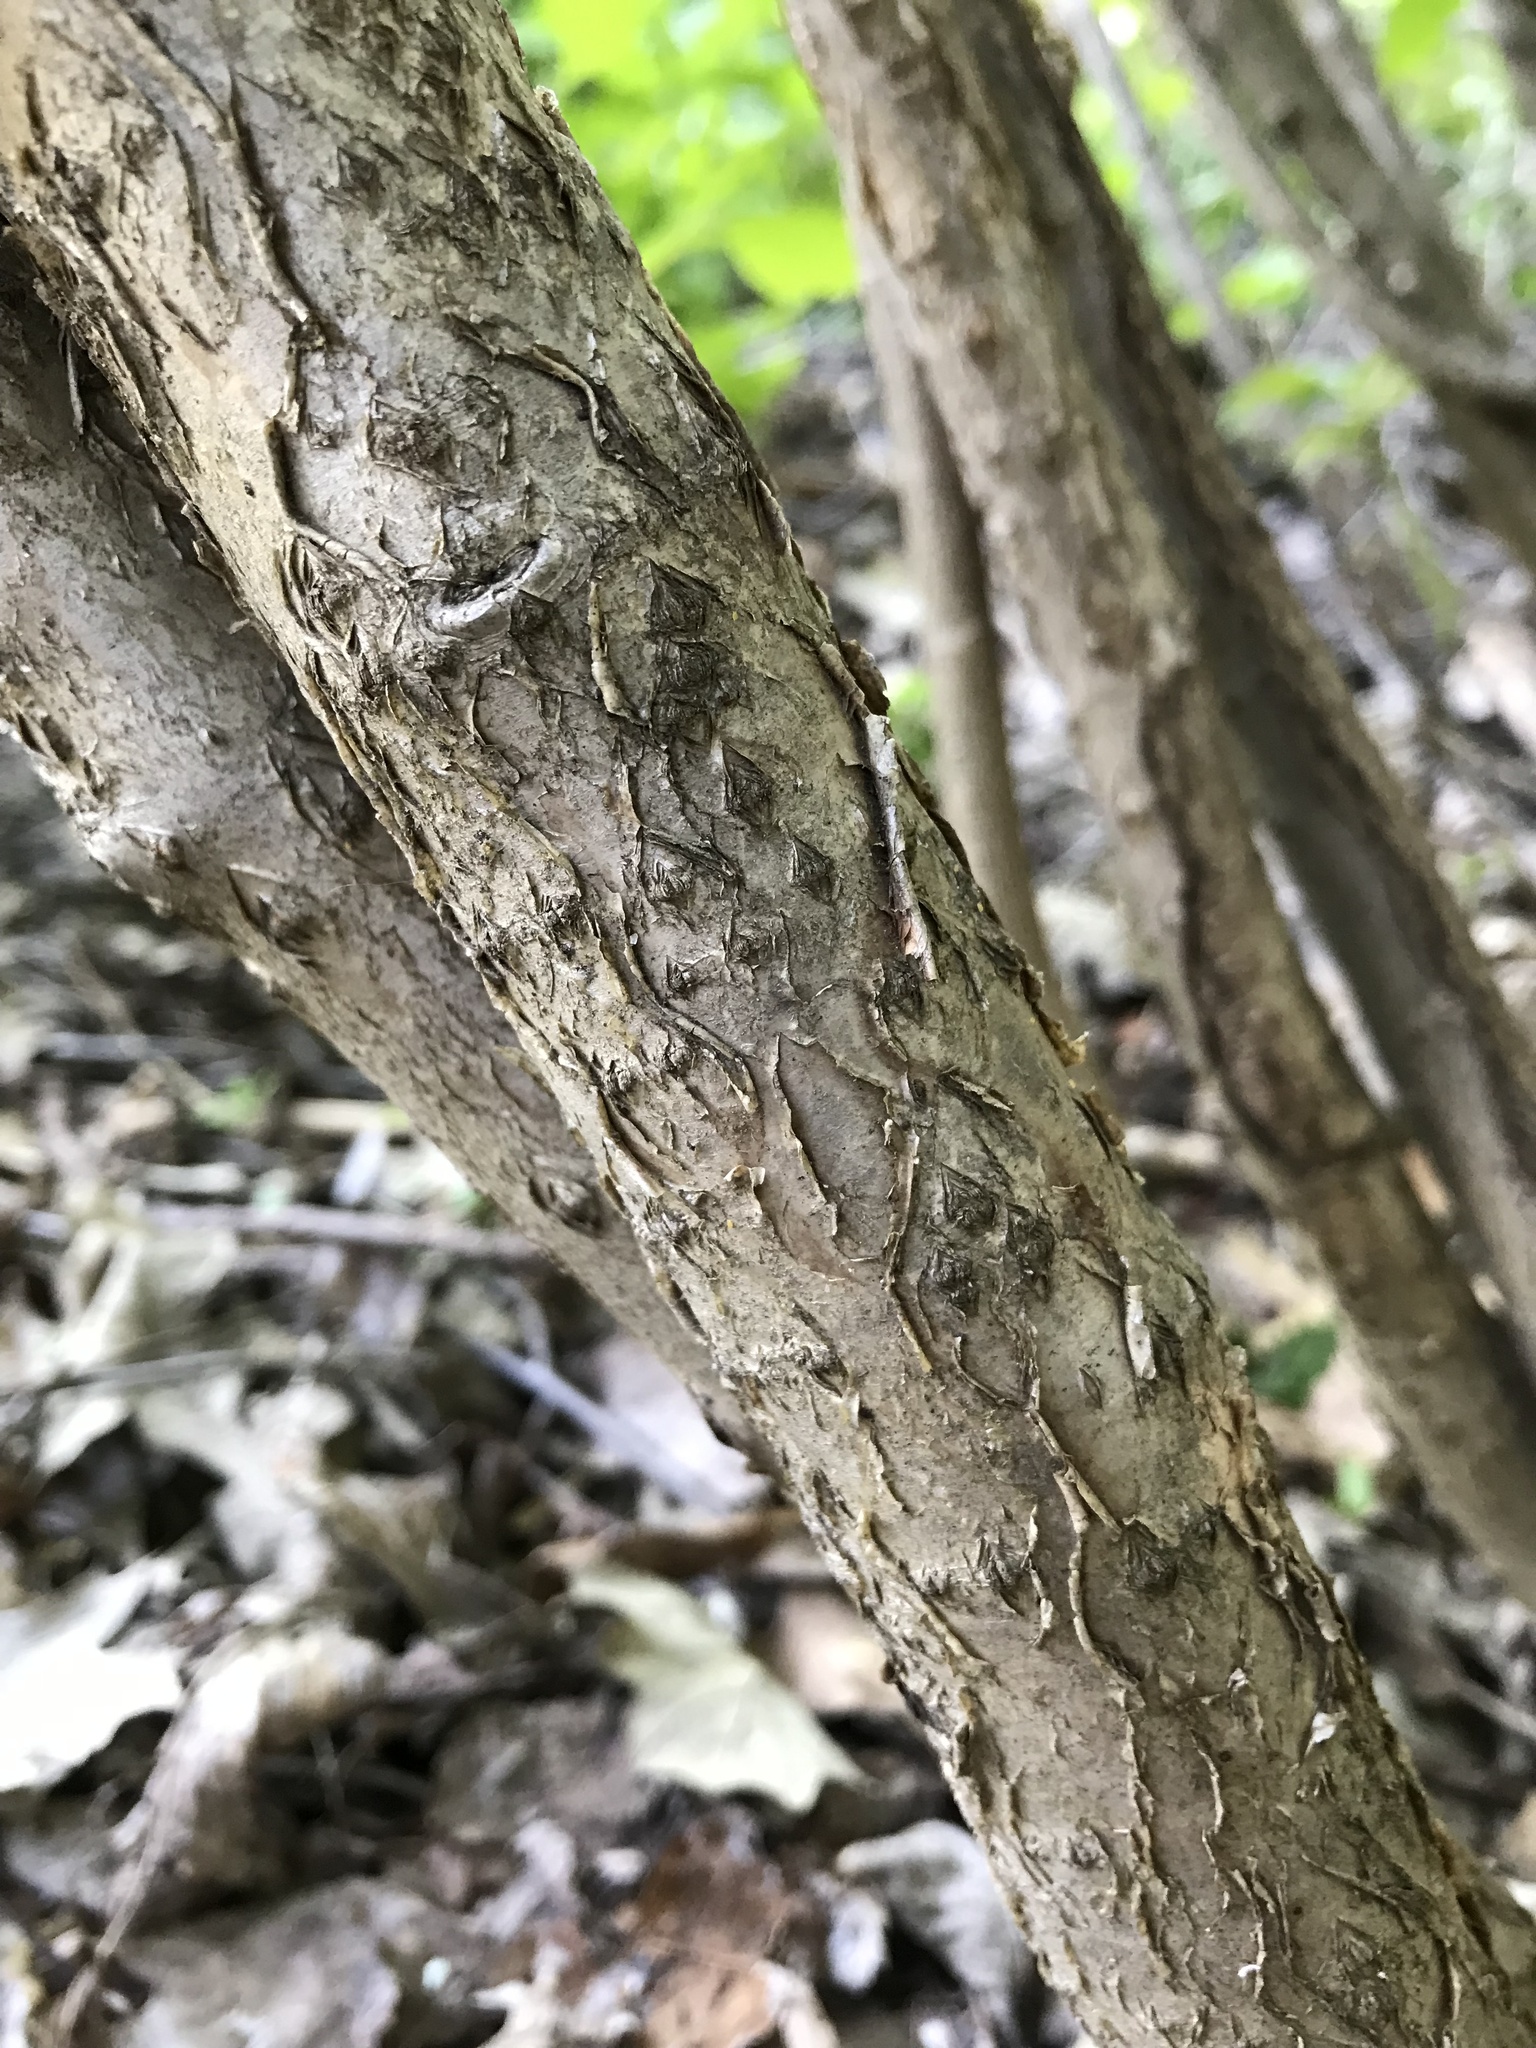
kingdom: Plantae
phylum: Tracheophyta
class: Magnoliopsida
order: Rosales
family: Rosaceae
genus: Aronia
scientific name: Aronia melanocarpa
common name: Black chokeberry
